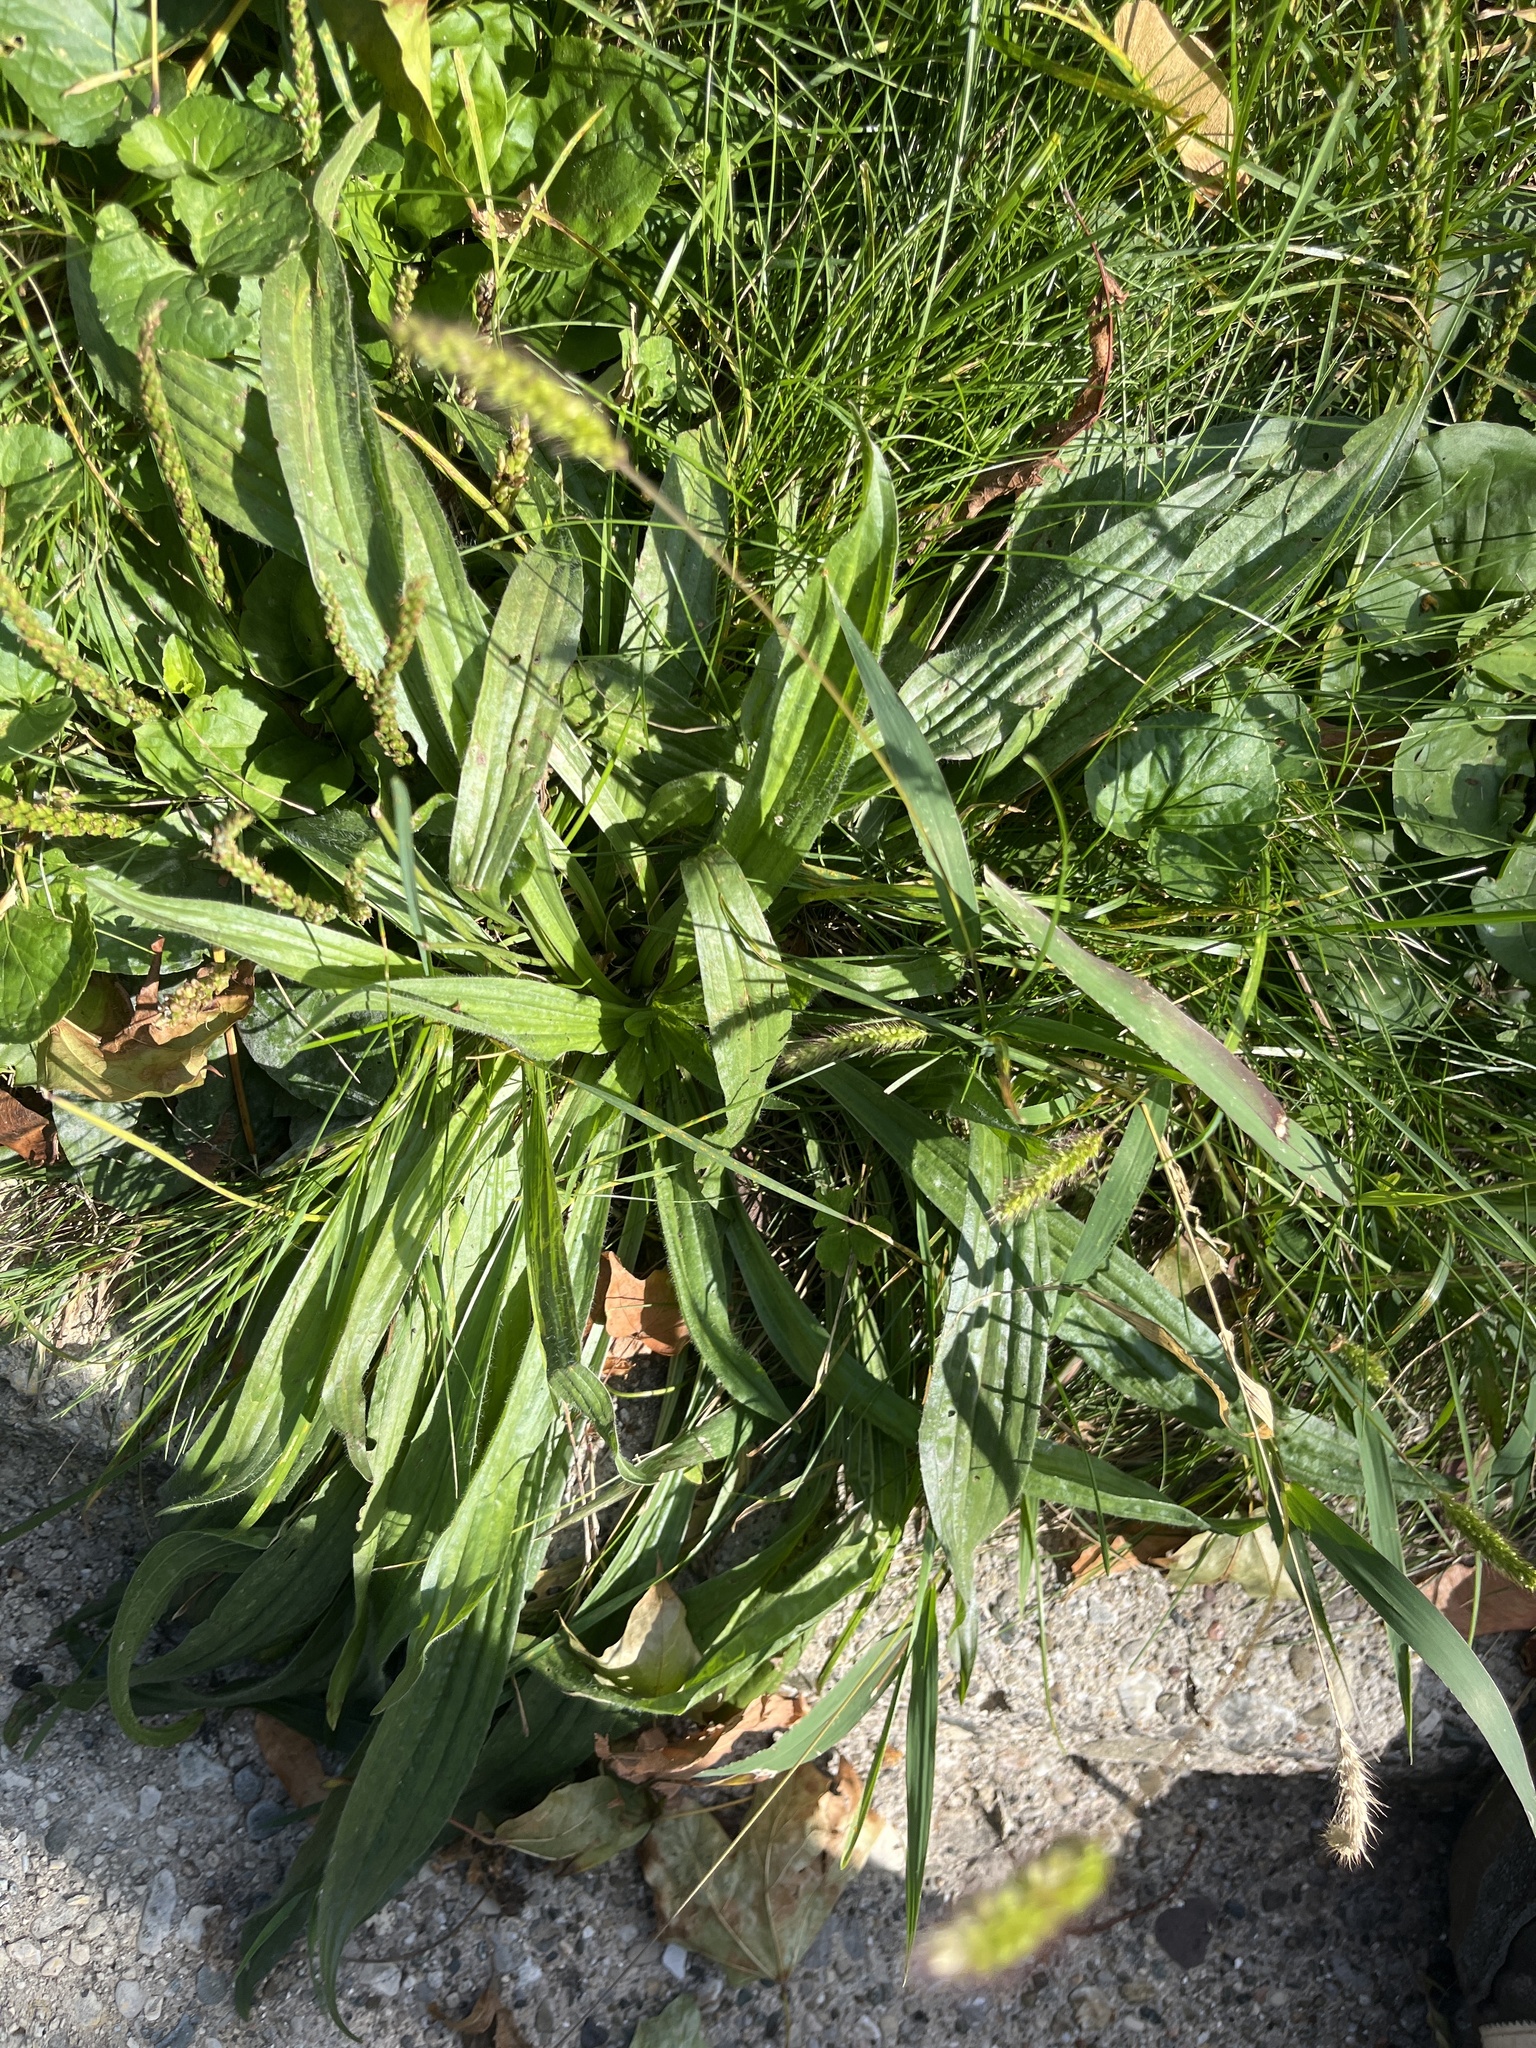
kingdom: Plantae
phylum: Tracheophyta
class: Magnoliopsida
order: Lamiales
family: Plantaginaceae
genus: Plantago
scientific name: Plantago lanceolata
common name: Ribwort plantain
